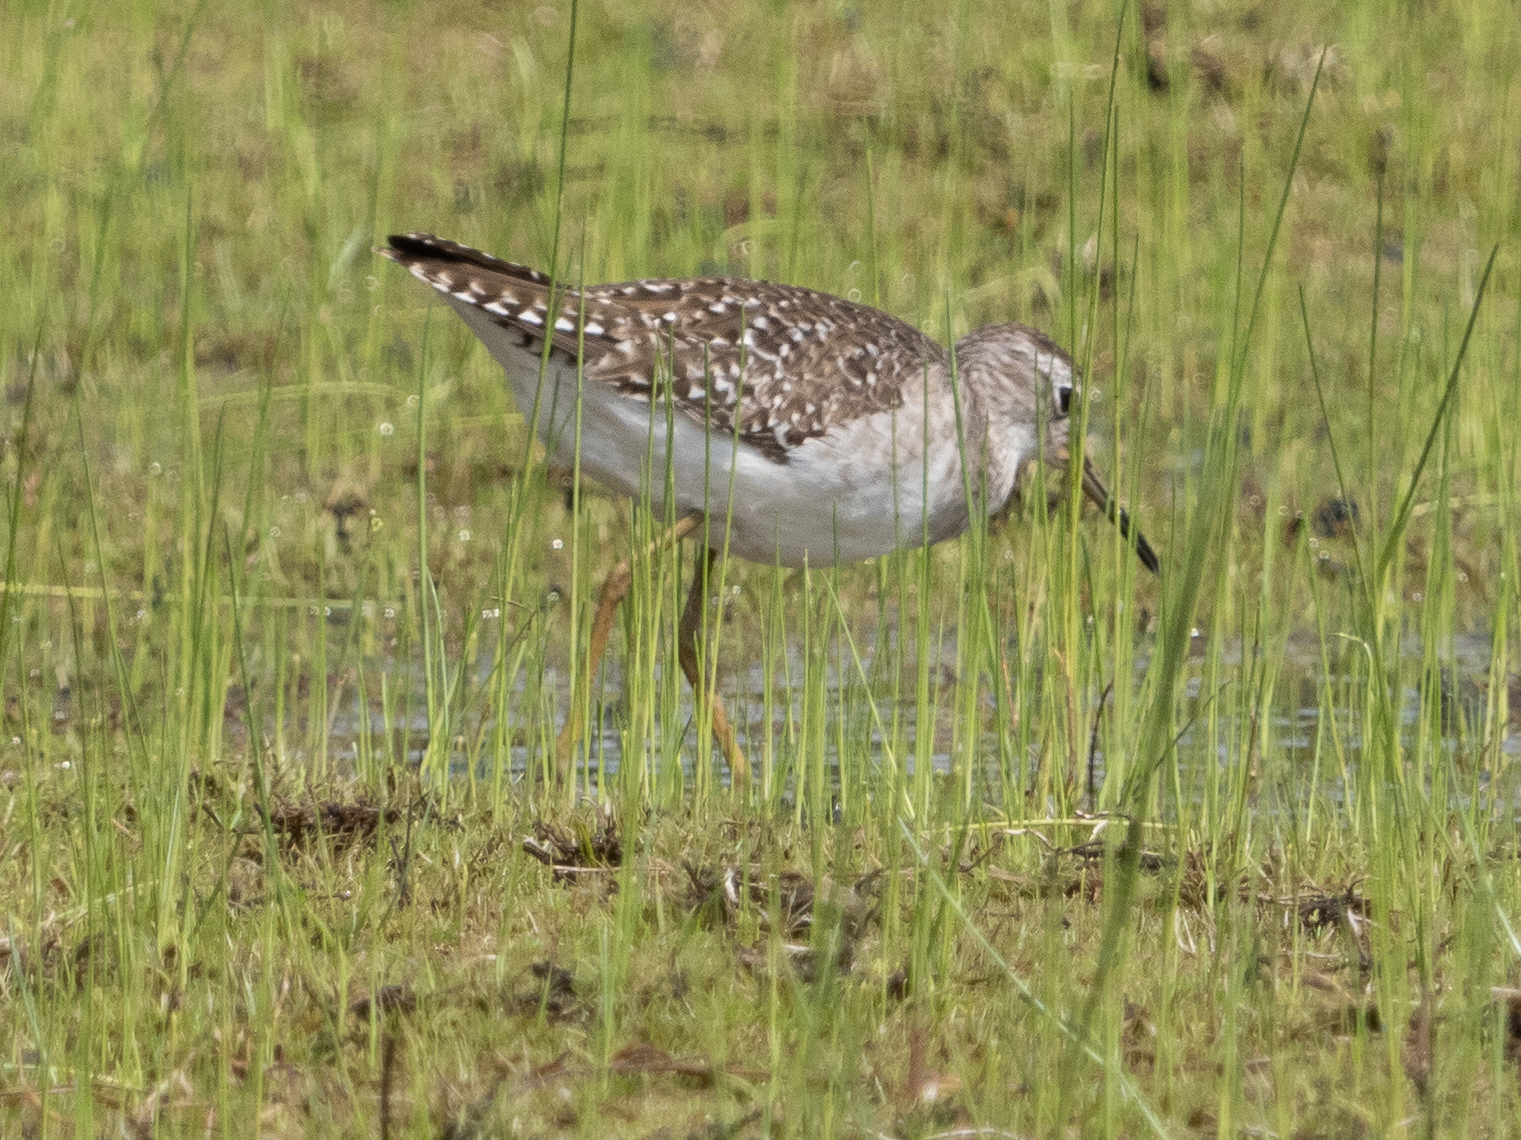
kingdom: Animalia
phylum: Chordata
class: Aves
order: Charadriiformes
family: Scolopacidae
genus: Tringa
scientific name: Tringa glareola
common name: Wood sandpiper
